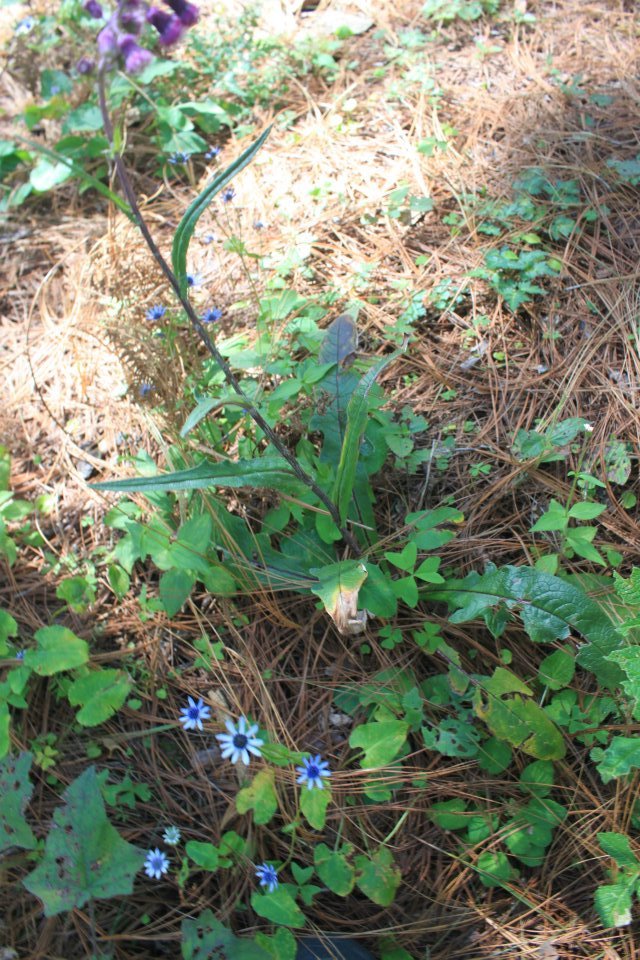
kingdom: Plantae
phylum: Tracheophyta
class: Magnoliopsida
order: Asterales
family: Asteraceae
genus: Senecio
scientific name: Senecio conzattii
